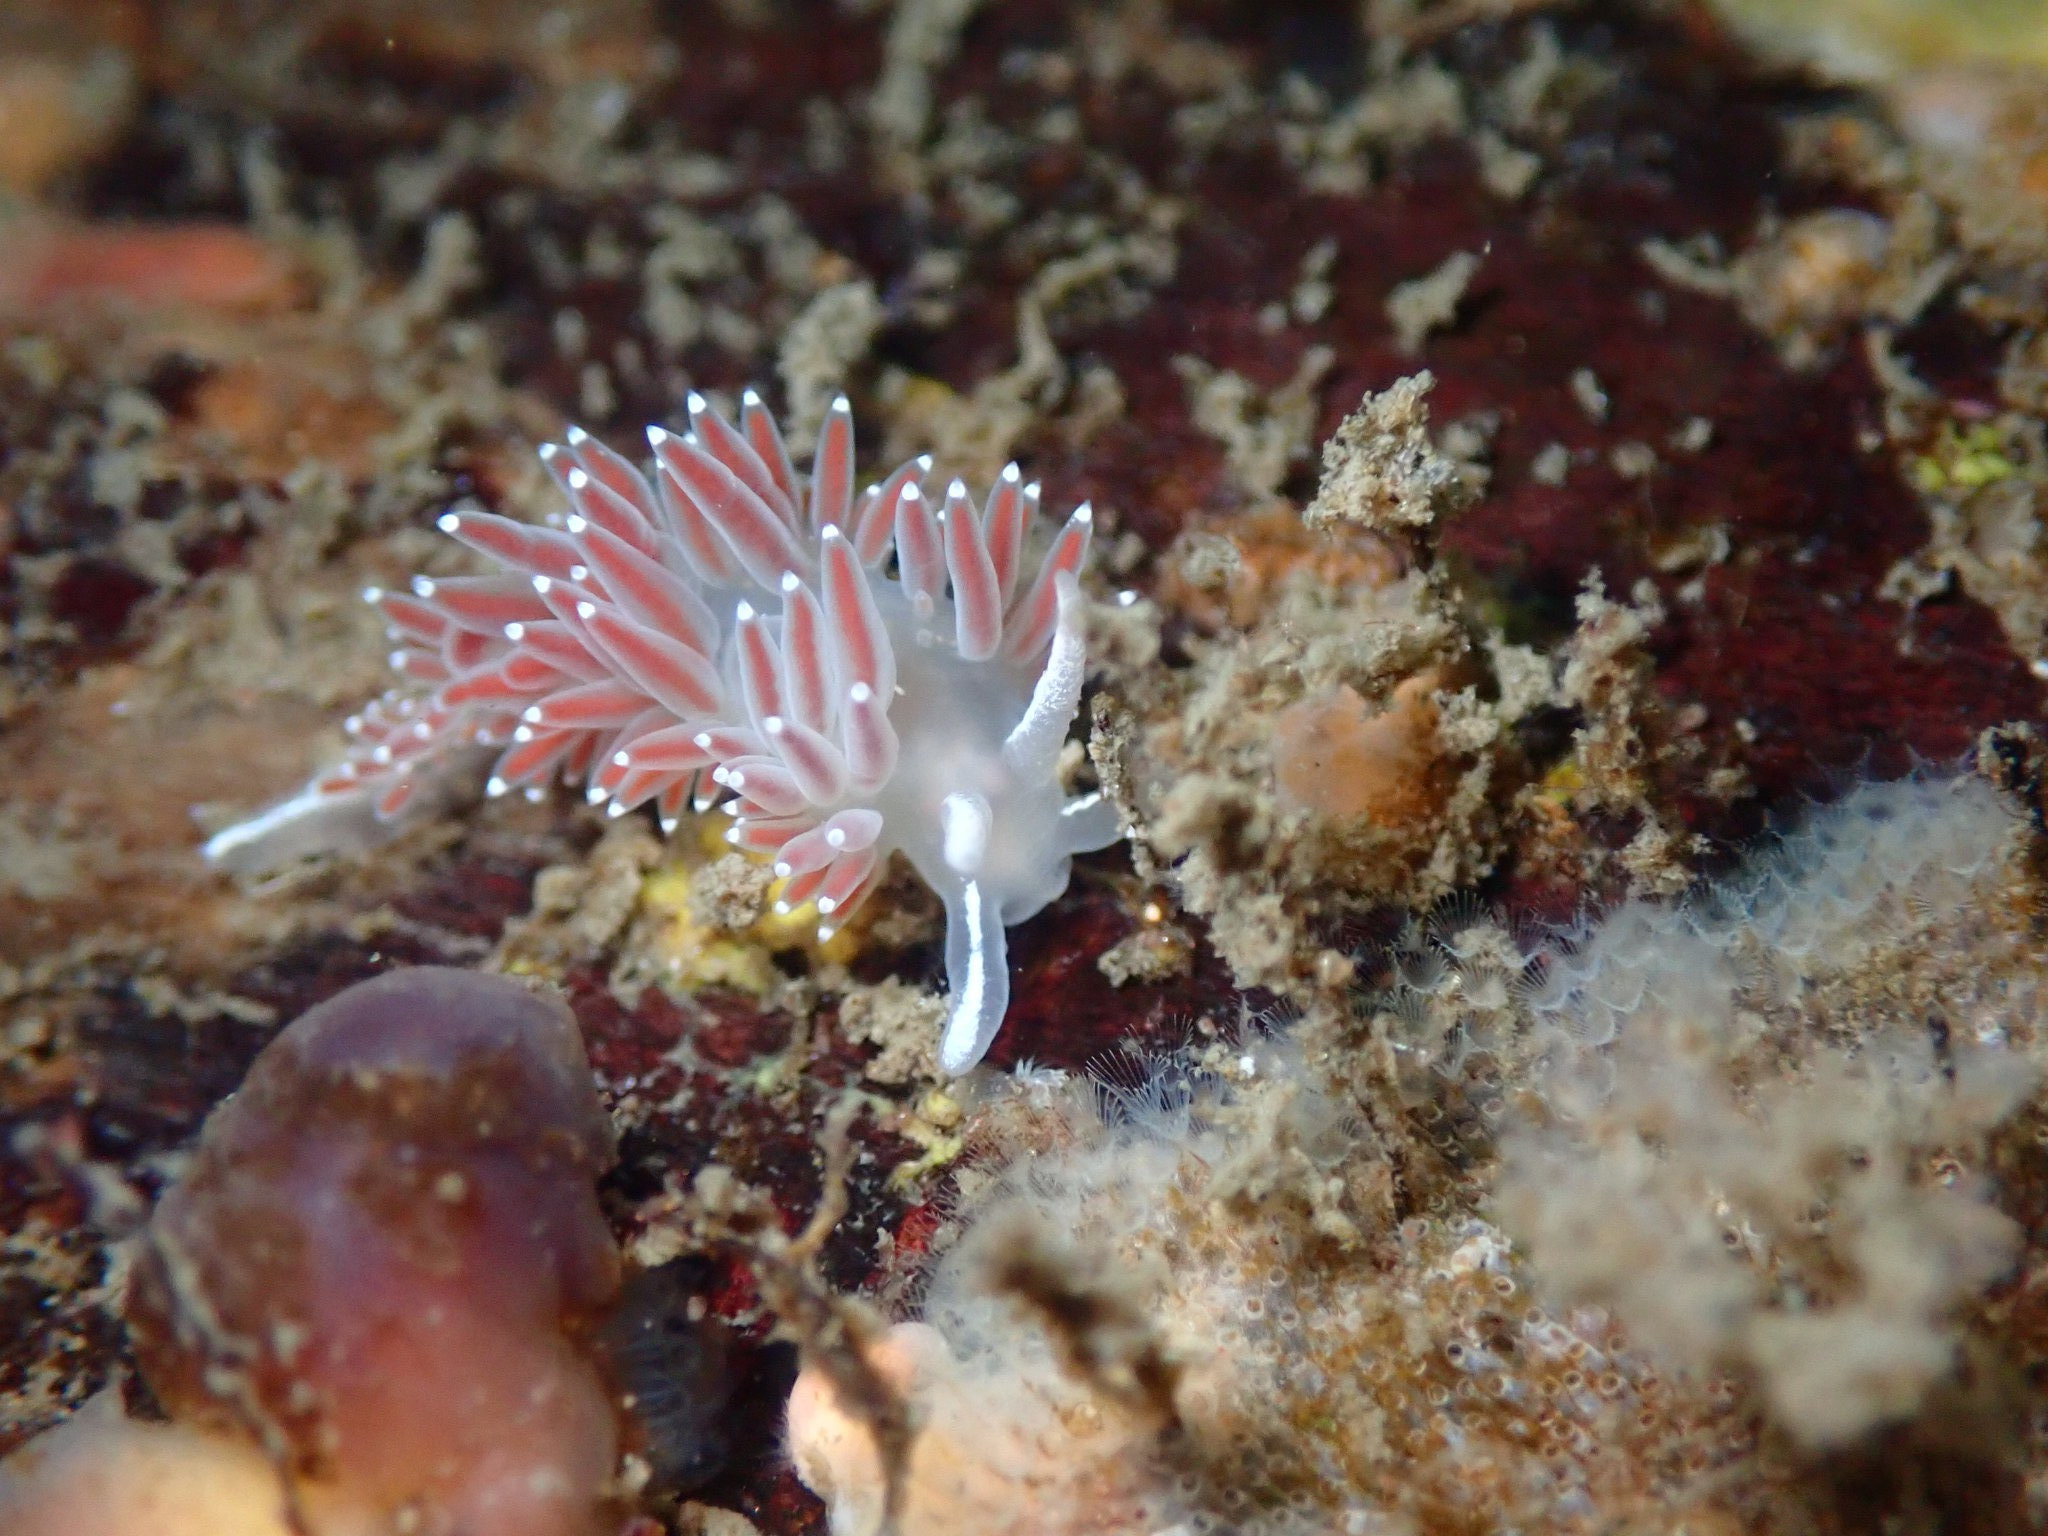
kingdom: Animalia
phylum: Mollusca
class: Gastropoda
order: Nudibranchia
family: Coryphellidae
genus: Coryphella
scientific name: Coryphella verrucosa
